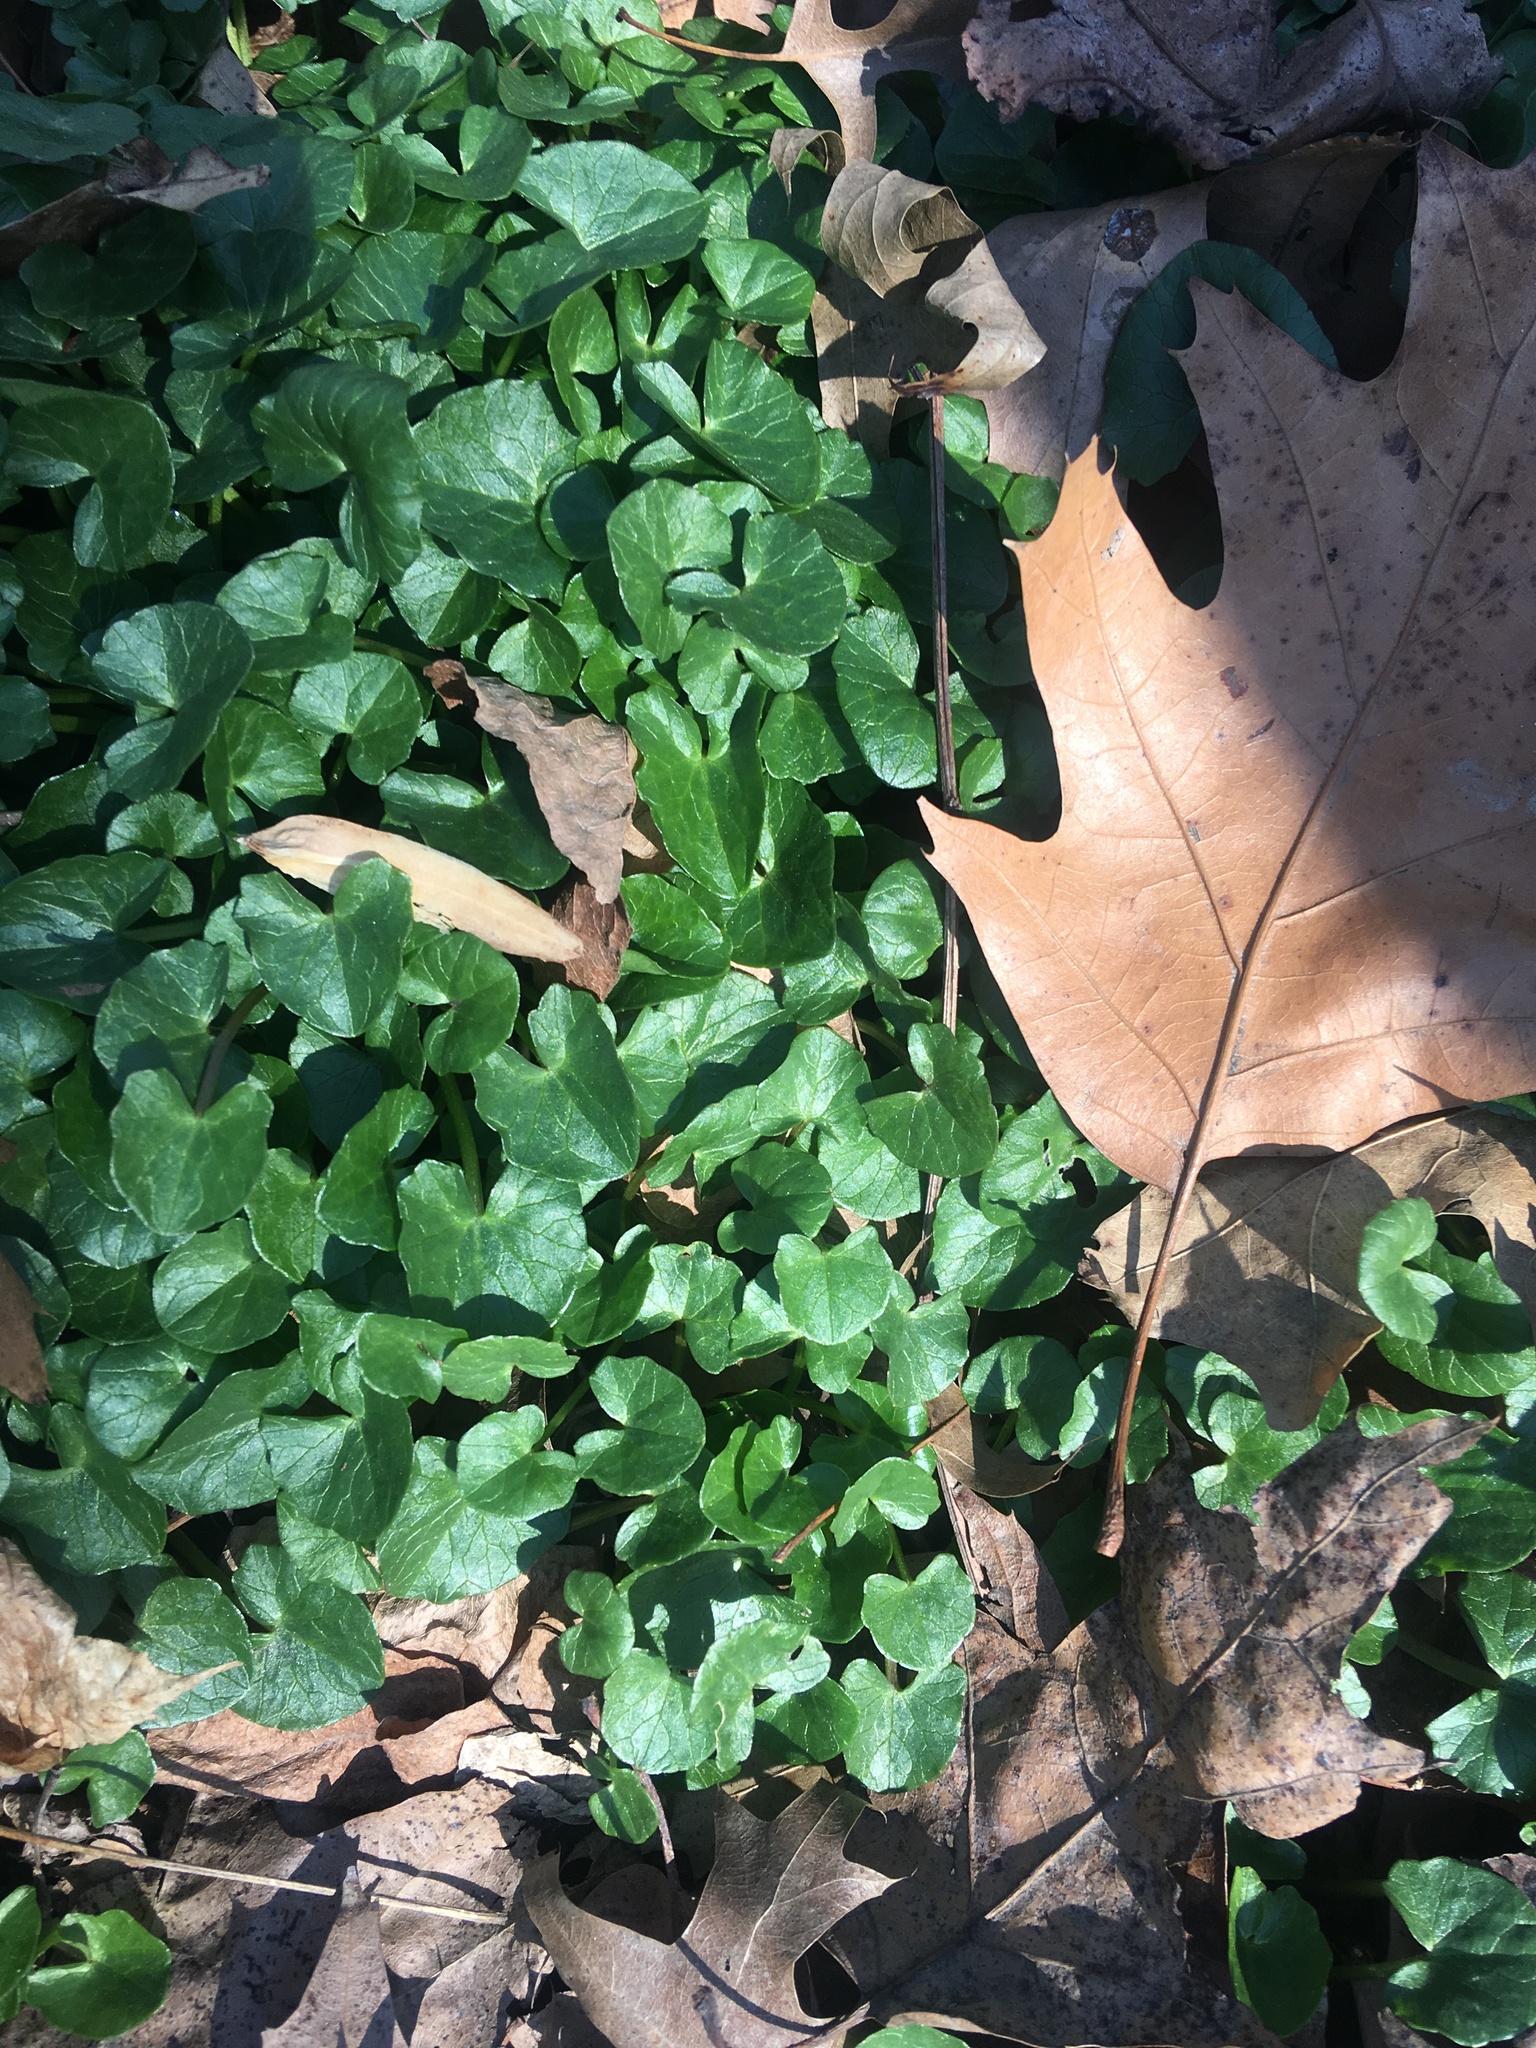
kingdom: Plantae
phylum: Tracheophyta
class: Magnoliopsida
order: Ranunculales
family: Ranunculaceae
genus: Ficaria
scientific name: Ficaria verna
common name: Lesser celandine
